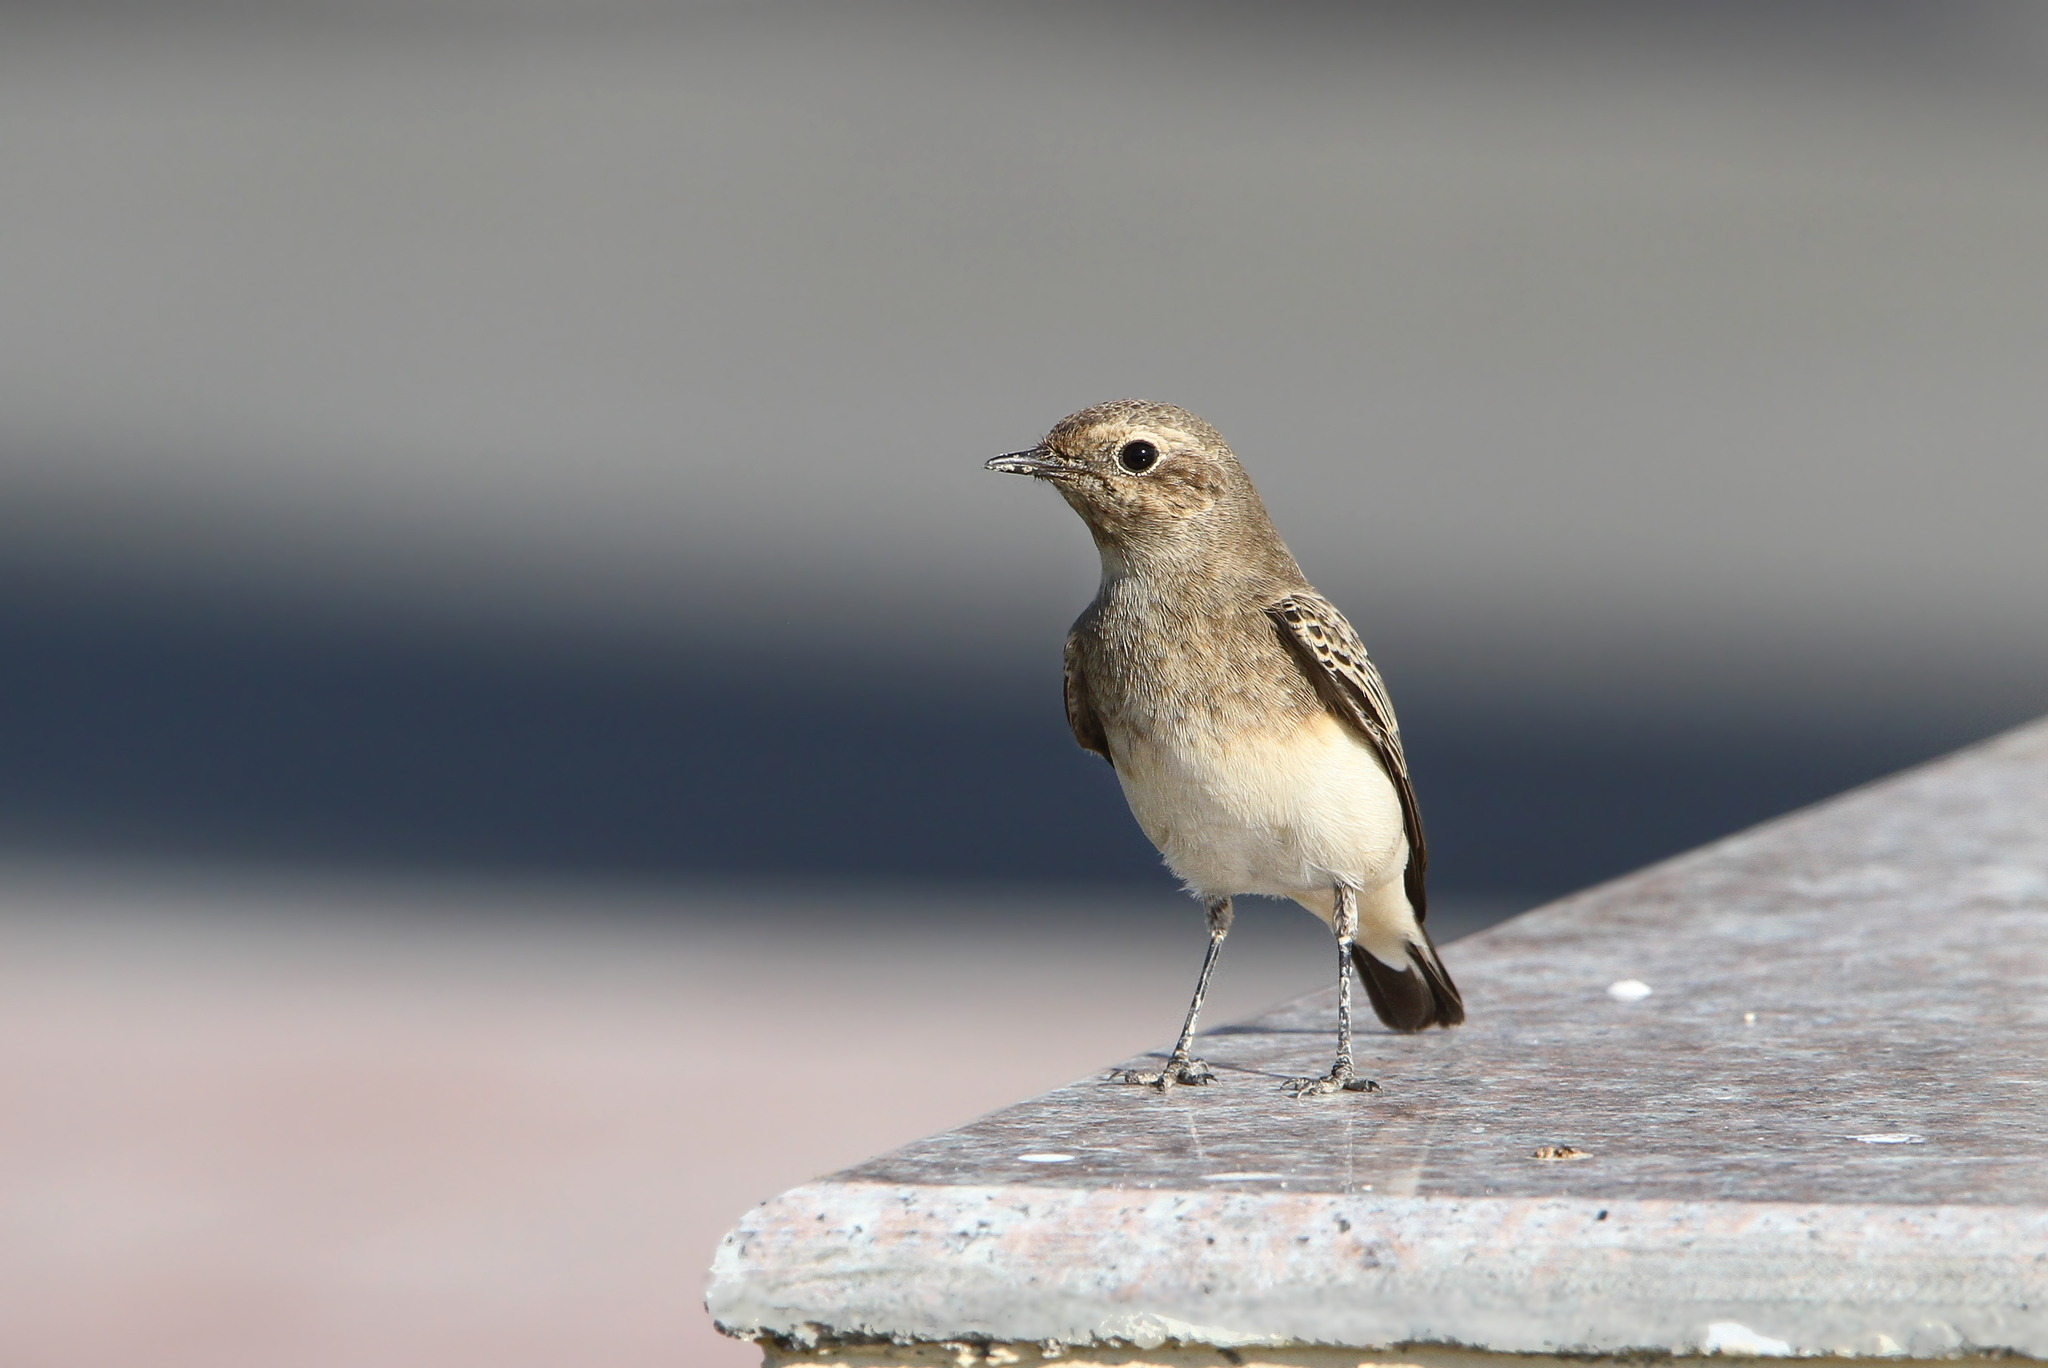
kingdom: Animalia
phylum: Chordata
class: Aves
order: Passeriformes
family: Muscicapidae
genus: Oenanthe
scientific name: Oenanthe pleschanka
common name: Pied wheatear
